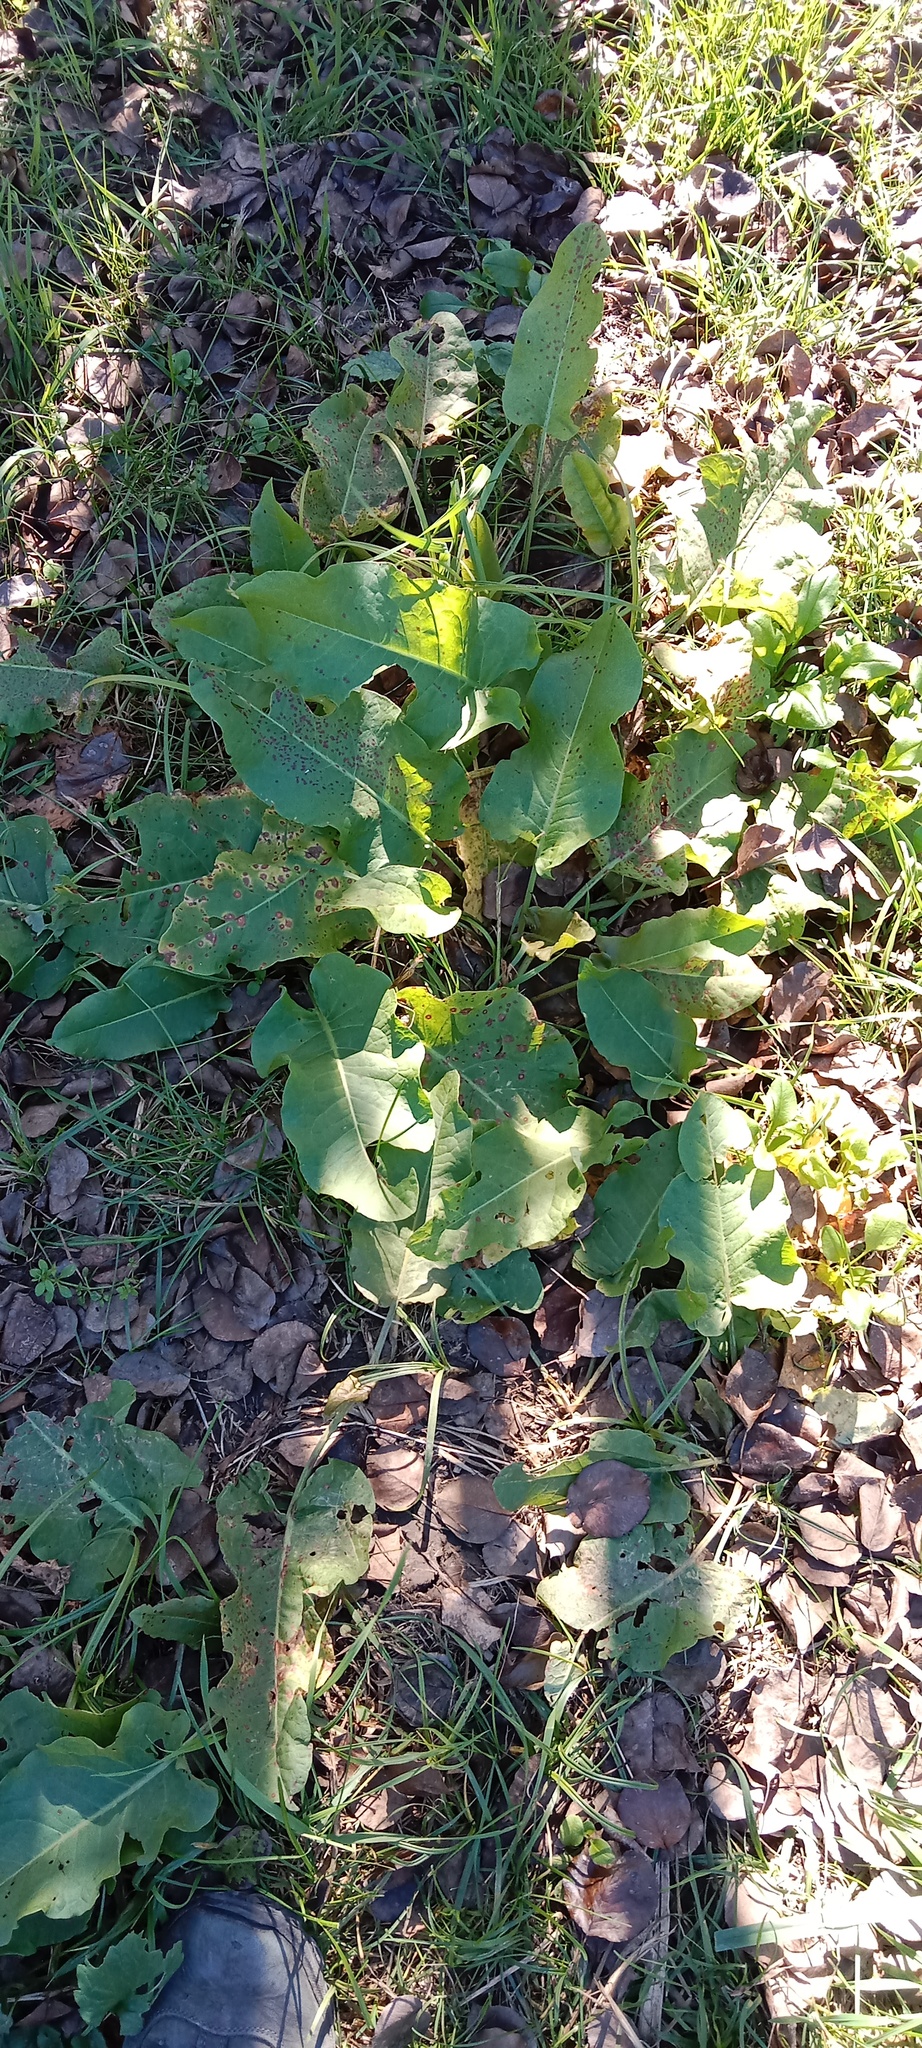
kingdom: Plantae
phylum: Tracheophyta
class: Magnoliopsida
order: Caryophyllales
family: Polygonaceae
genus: Rumex
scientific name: Rumex confertus
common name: Russian dock
